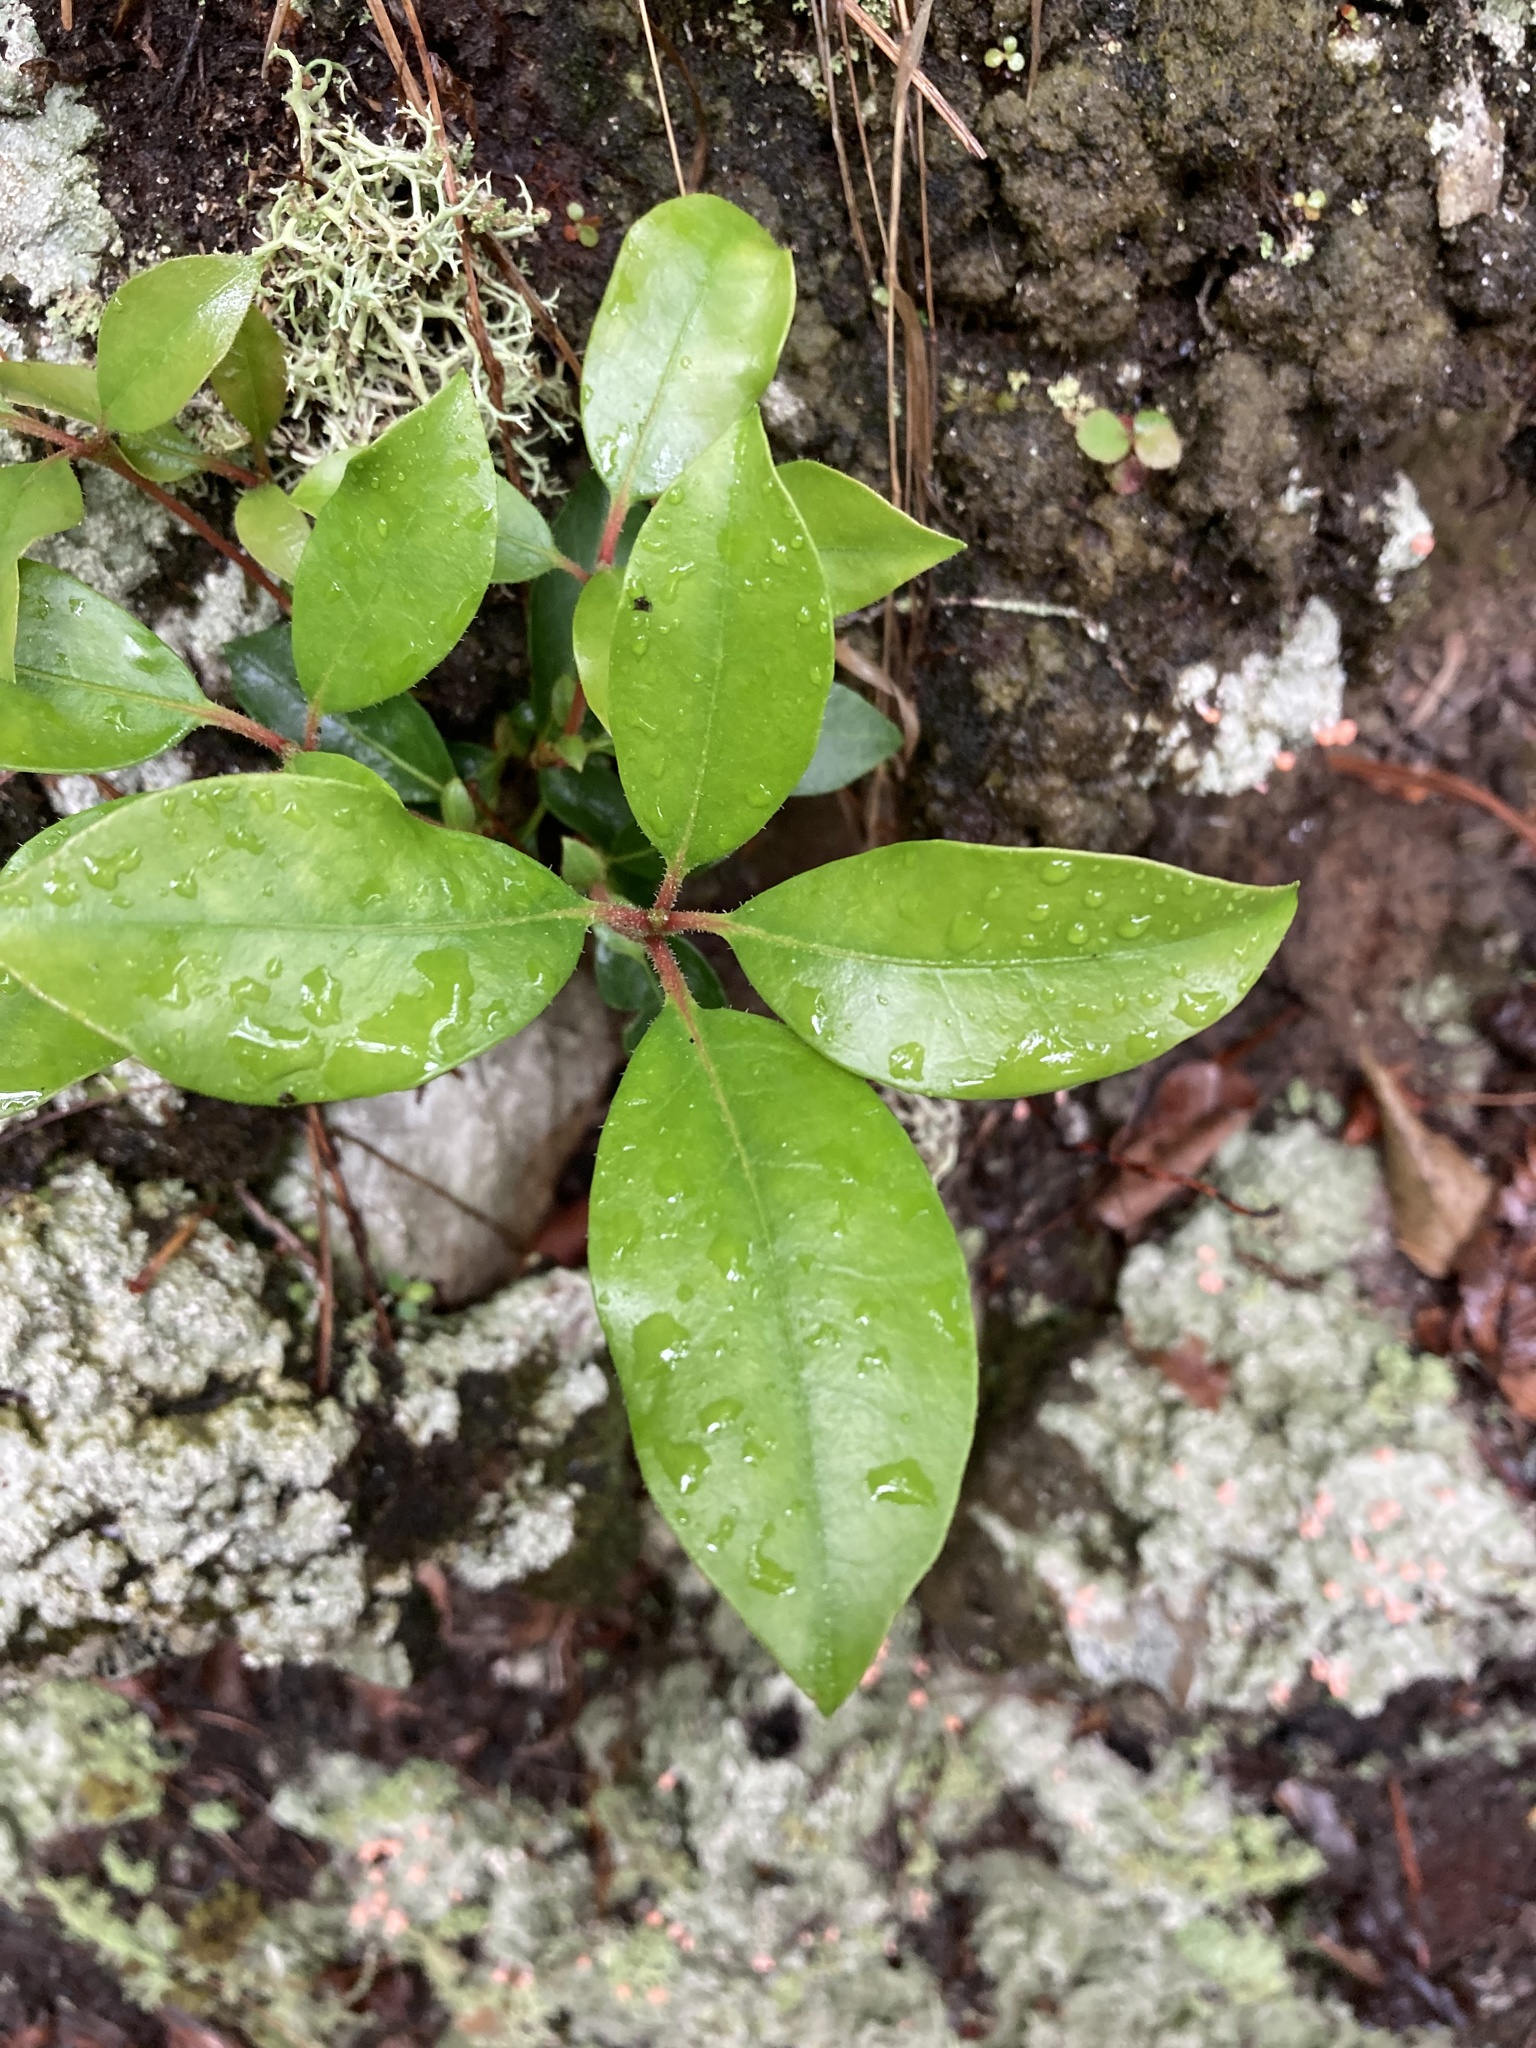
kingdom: Plantae
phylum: Tracheophyta
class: Magnoliopsida
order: Ericales
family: Ericaceae
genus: Gaultheria
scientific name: Gaultheria procumbens
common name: Checkerberry
